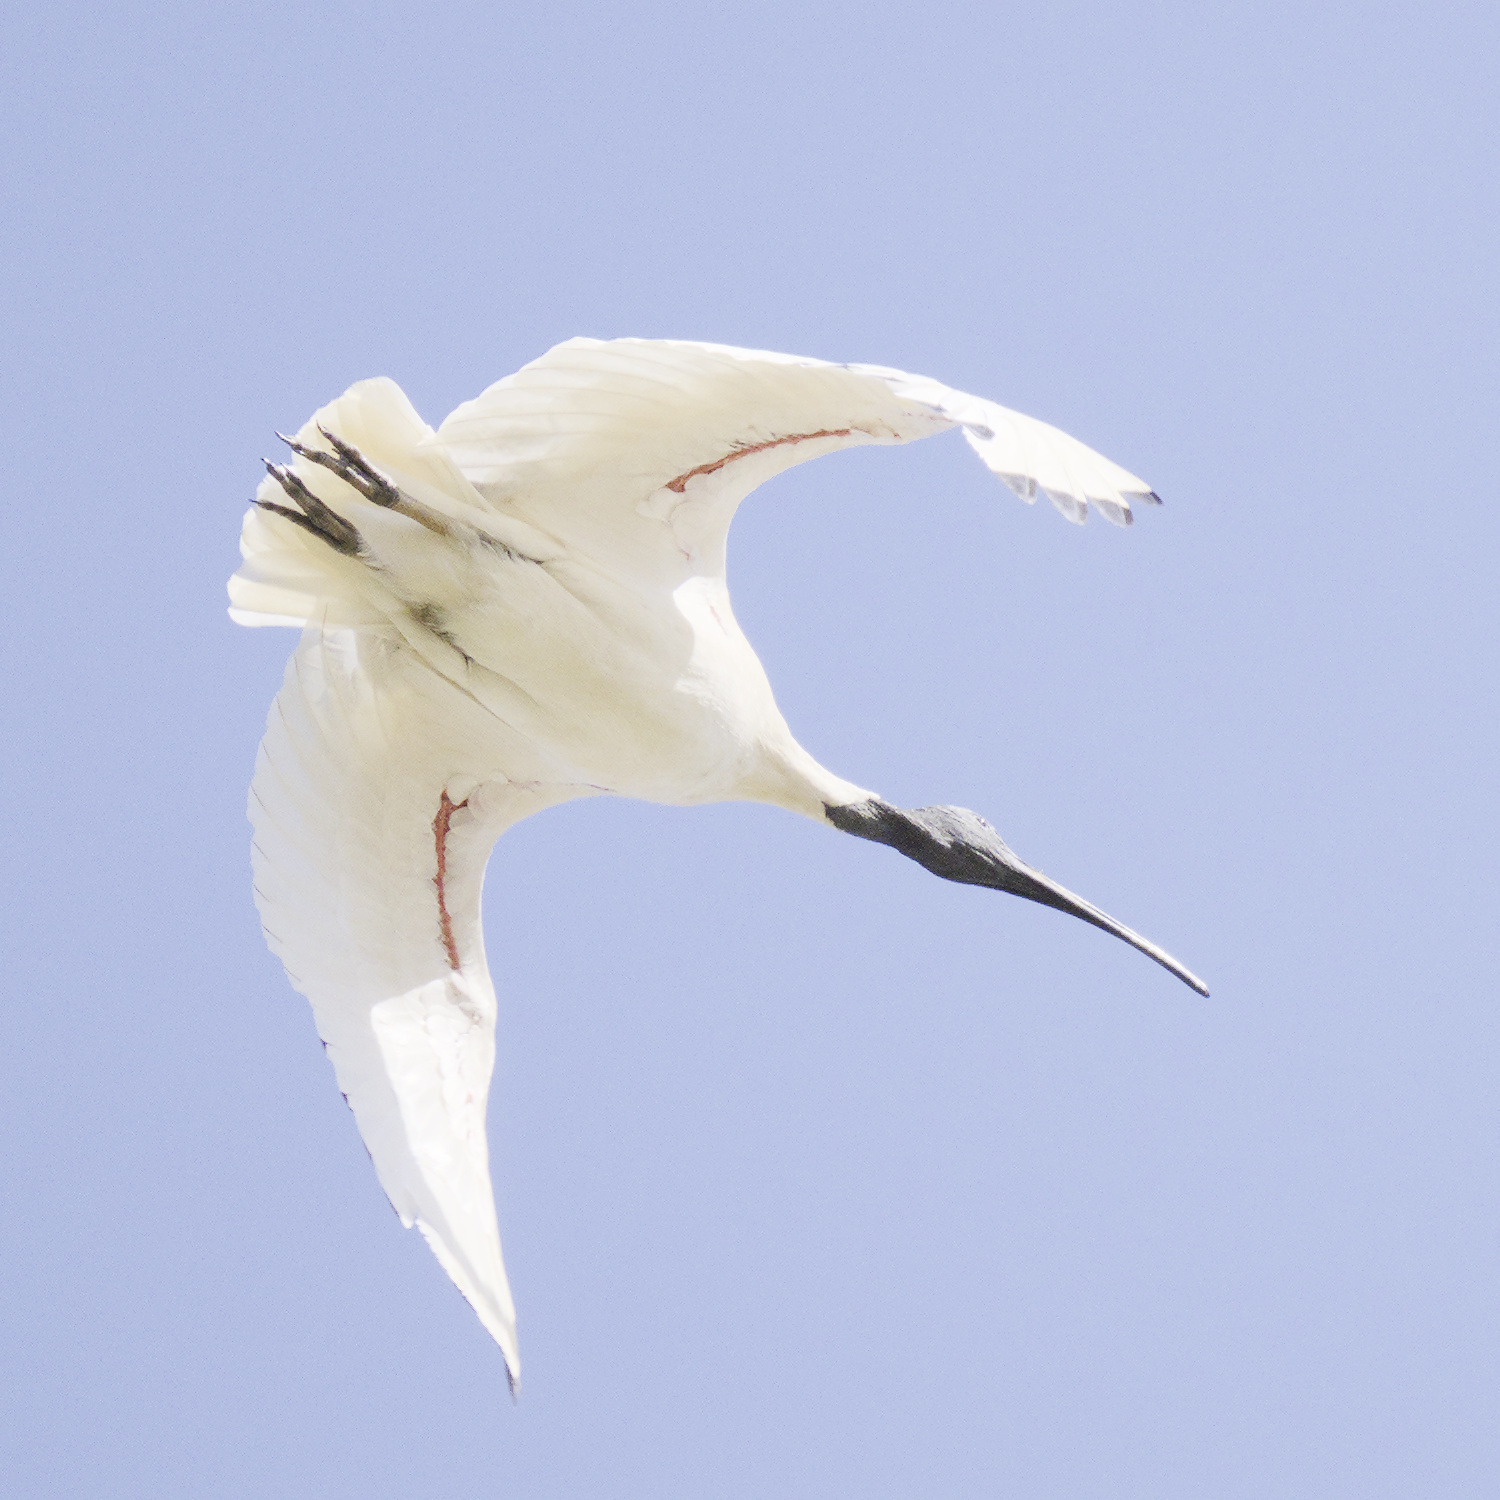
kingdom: Animalia
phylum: Chordata
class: Aves
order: Pelecaniformes
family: Threskiornithidae
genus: Threskiornis
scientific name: Threskiornis molucca
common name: Australian white ibis
